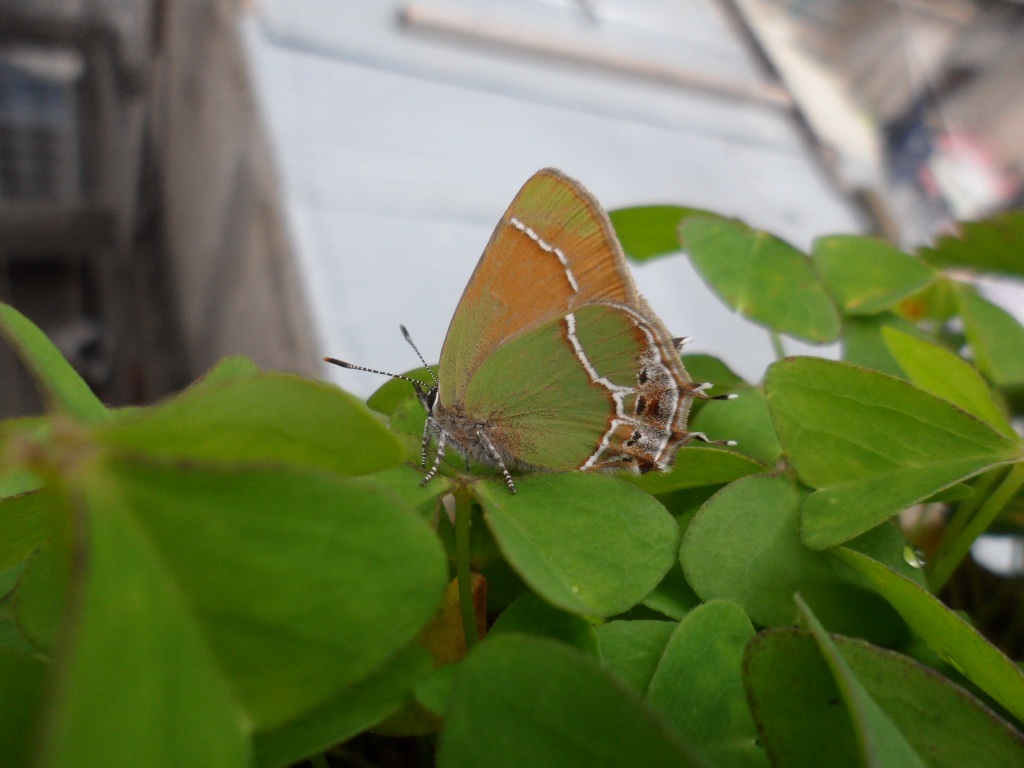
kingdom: Animalia
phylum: Arthropoda
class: Insecta
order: Lepidoptera
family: Lycaenidae
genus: Xamia
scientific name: Xamia xami
